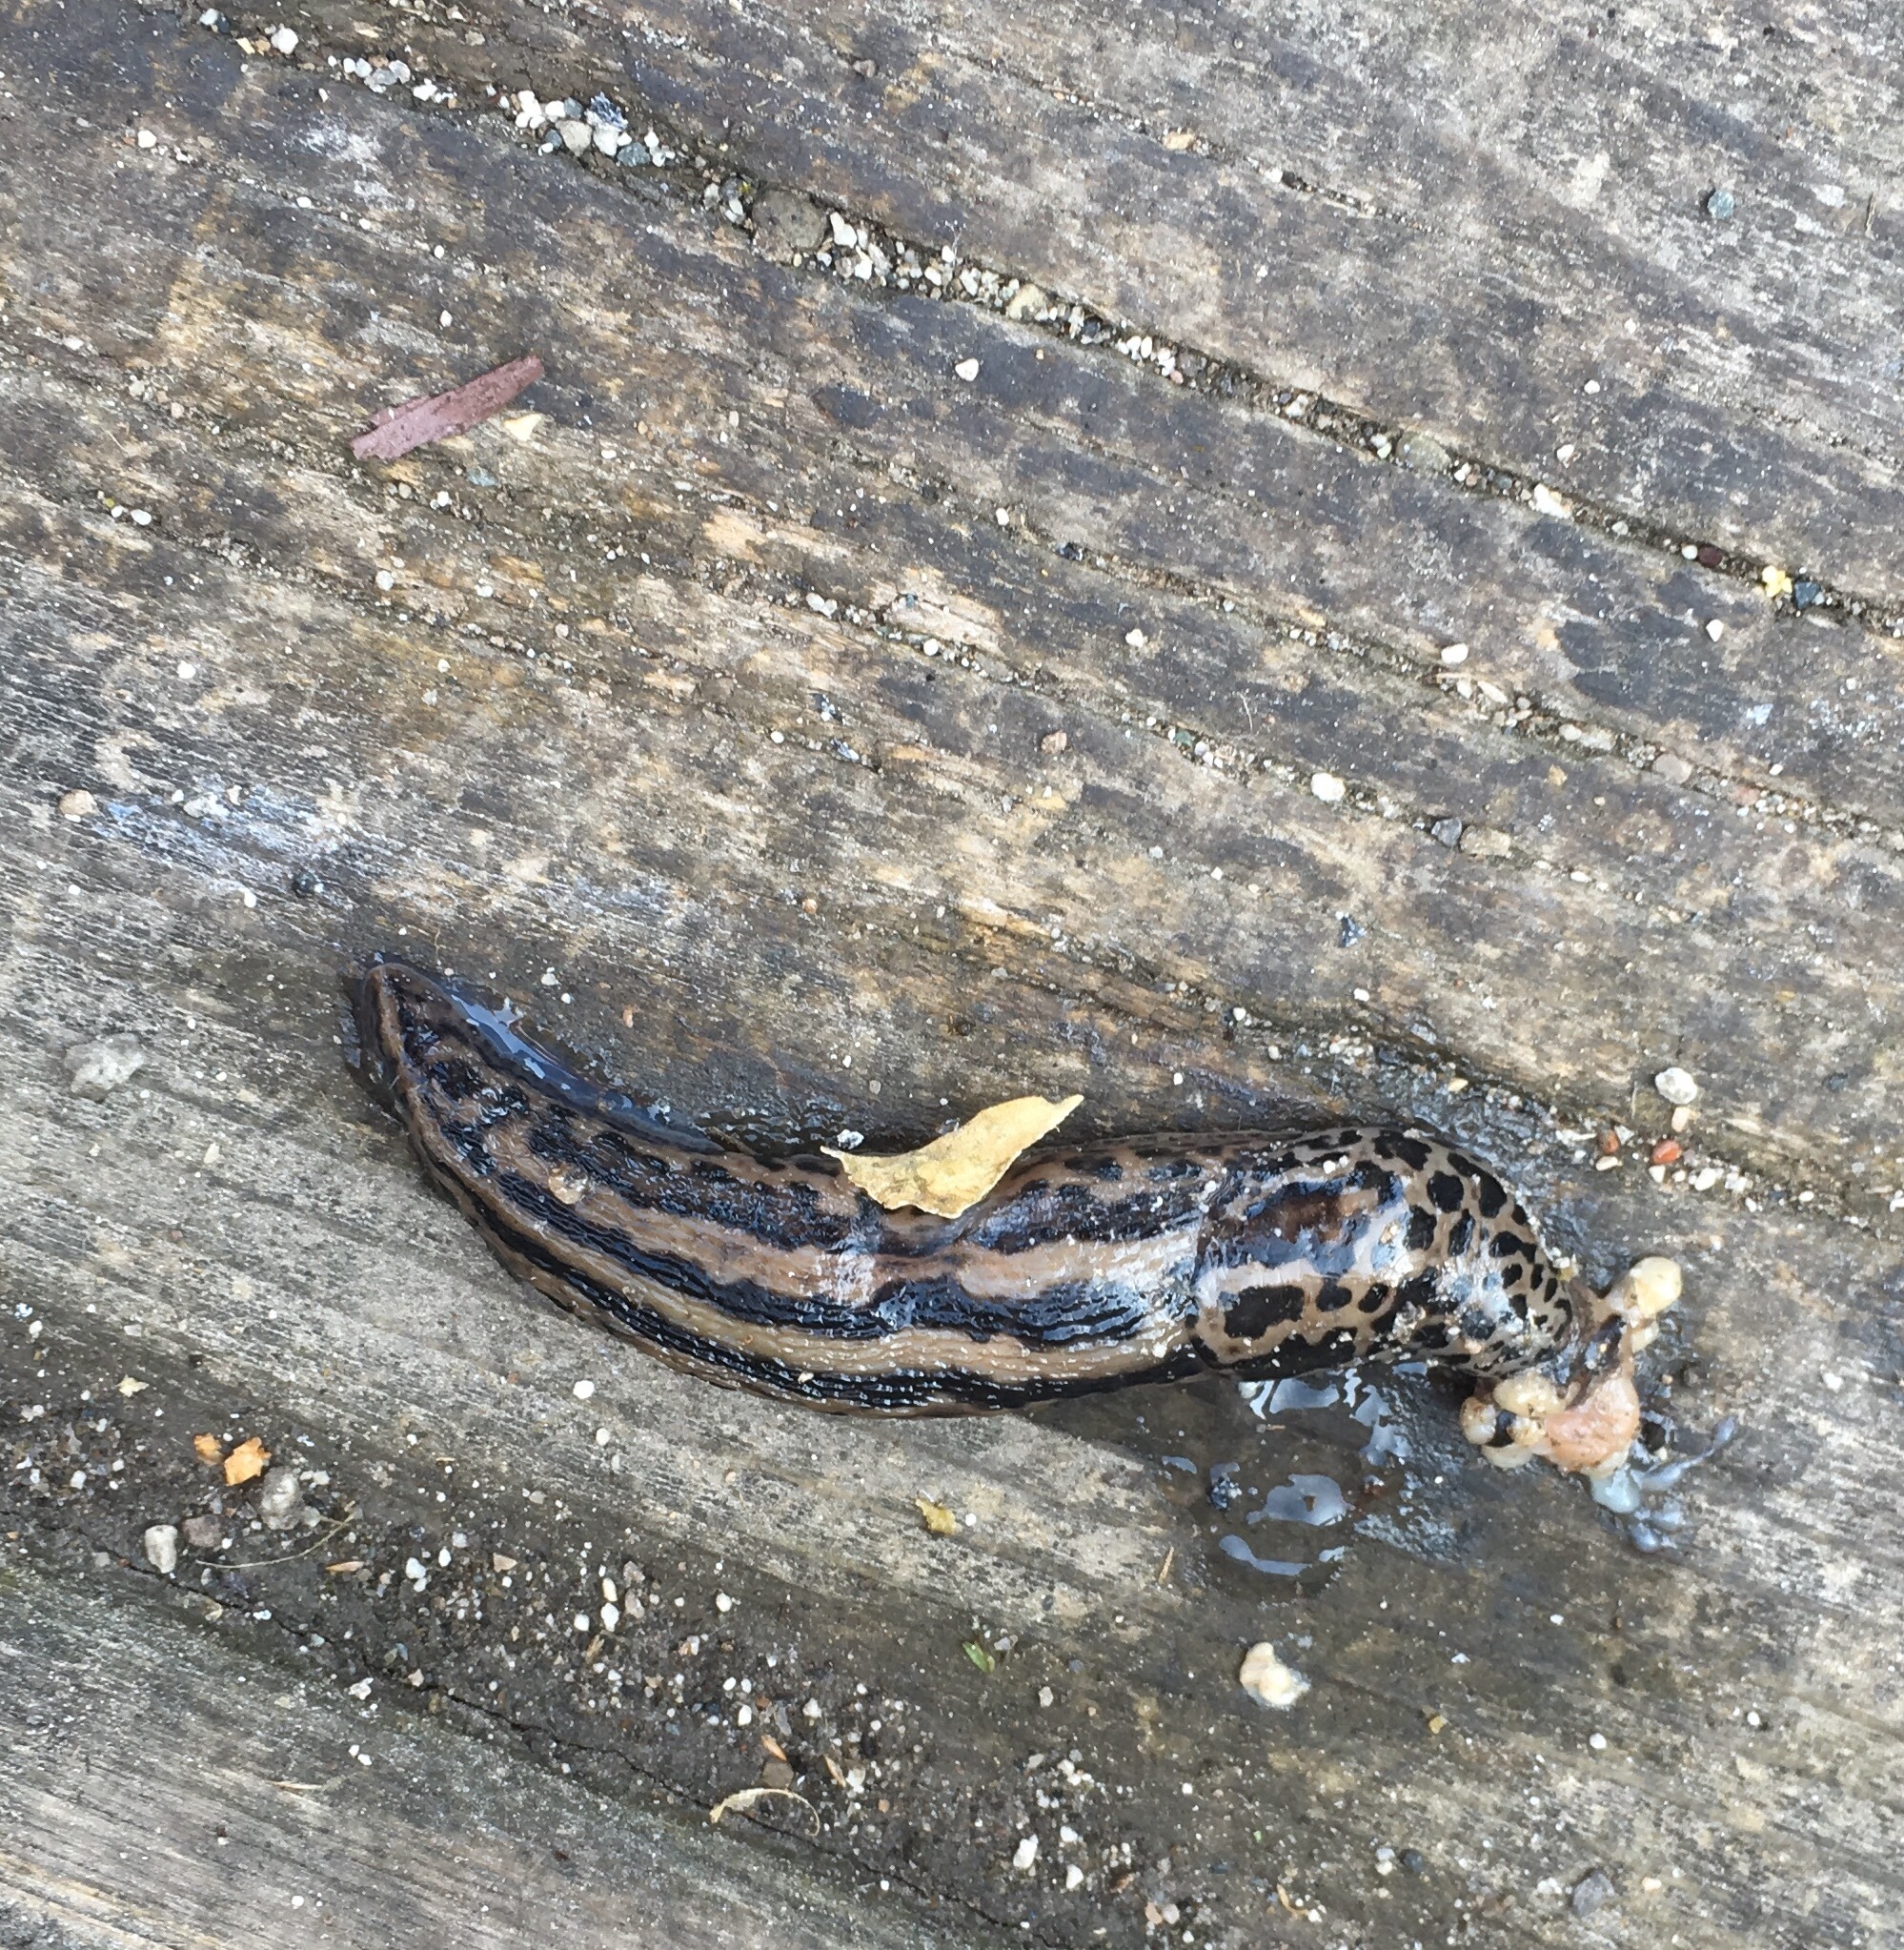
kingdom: Animalia
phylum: Mollusca
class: Gastropoda
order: Stylommatophora
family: Limacidae
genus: Limax
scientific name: Limax maximus
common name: Great grey slug
